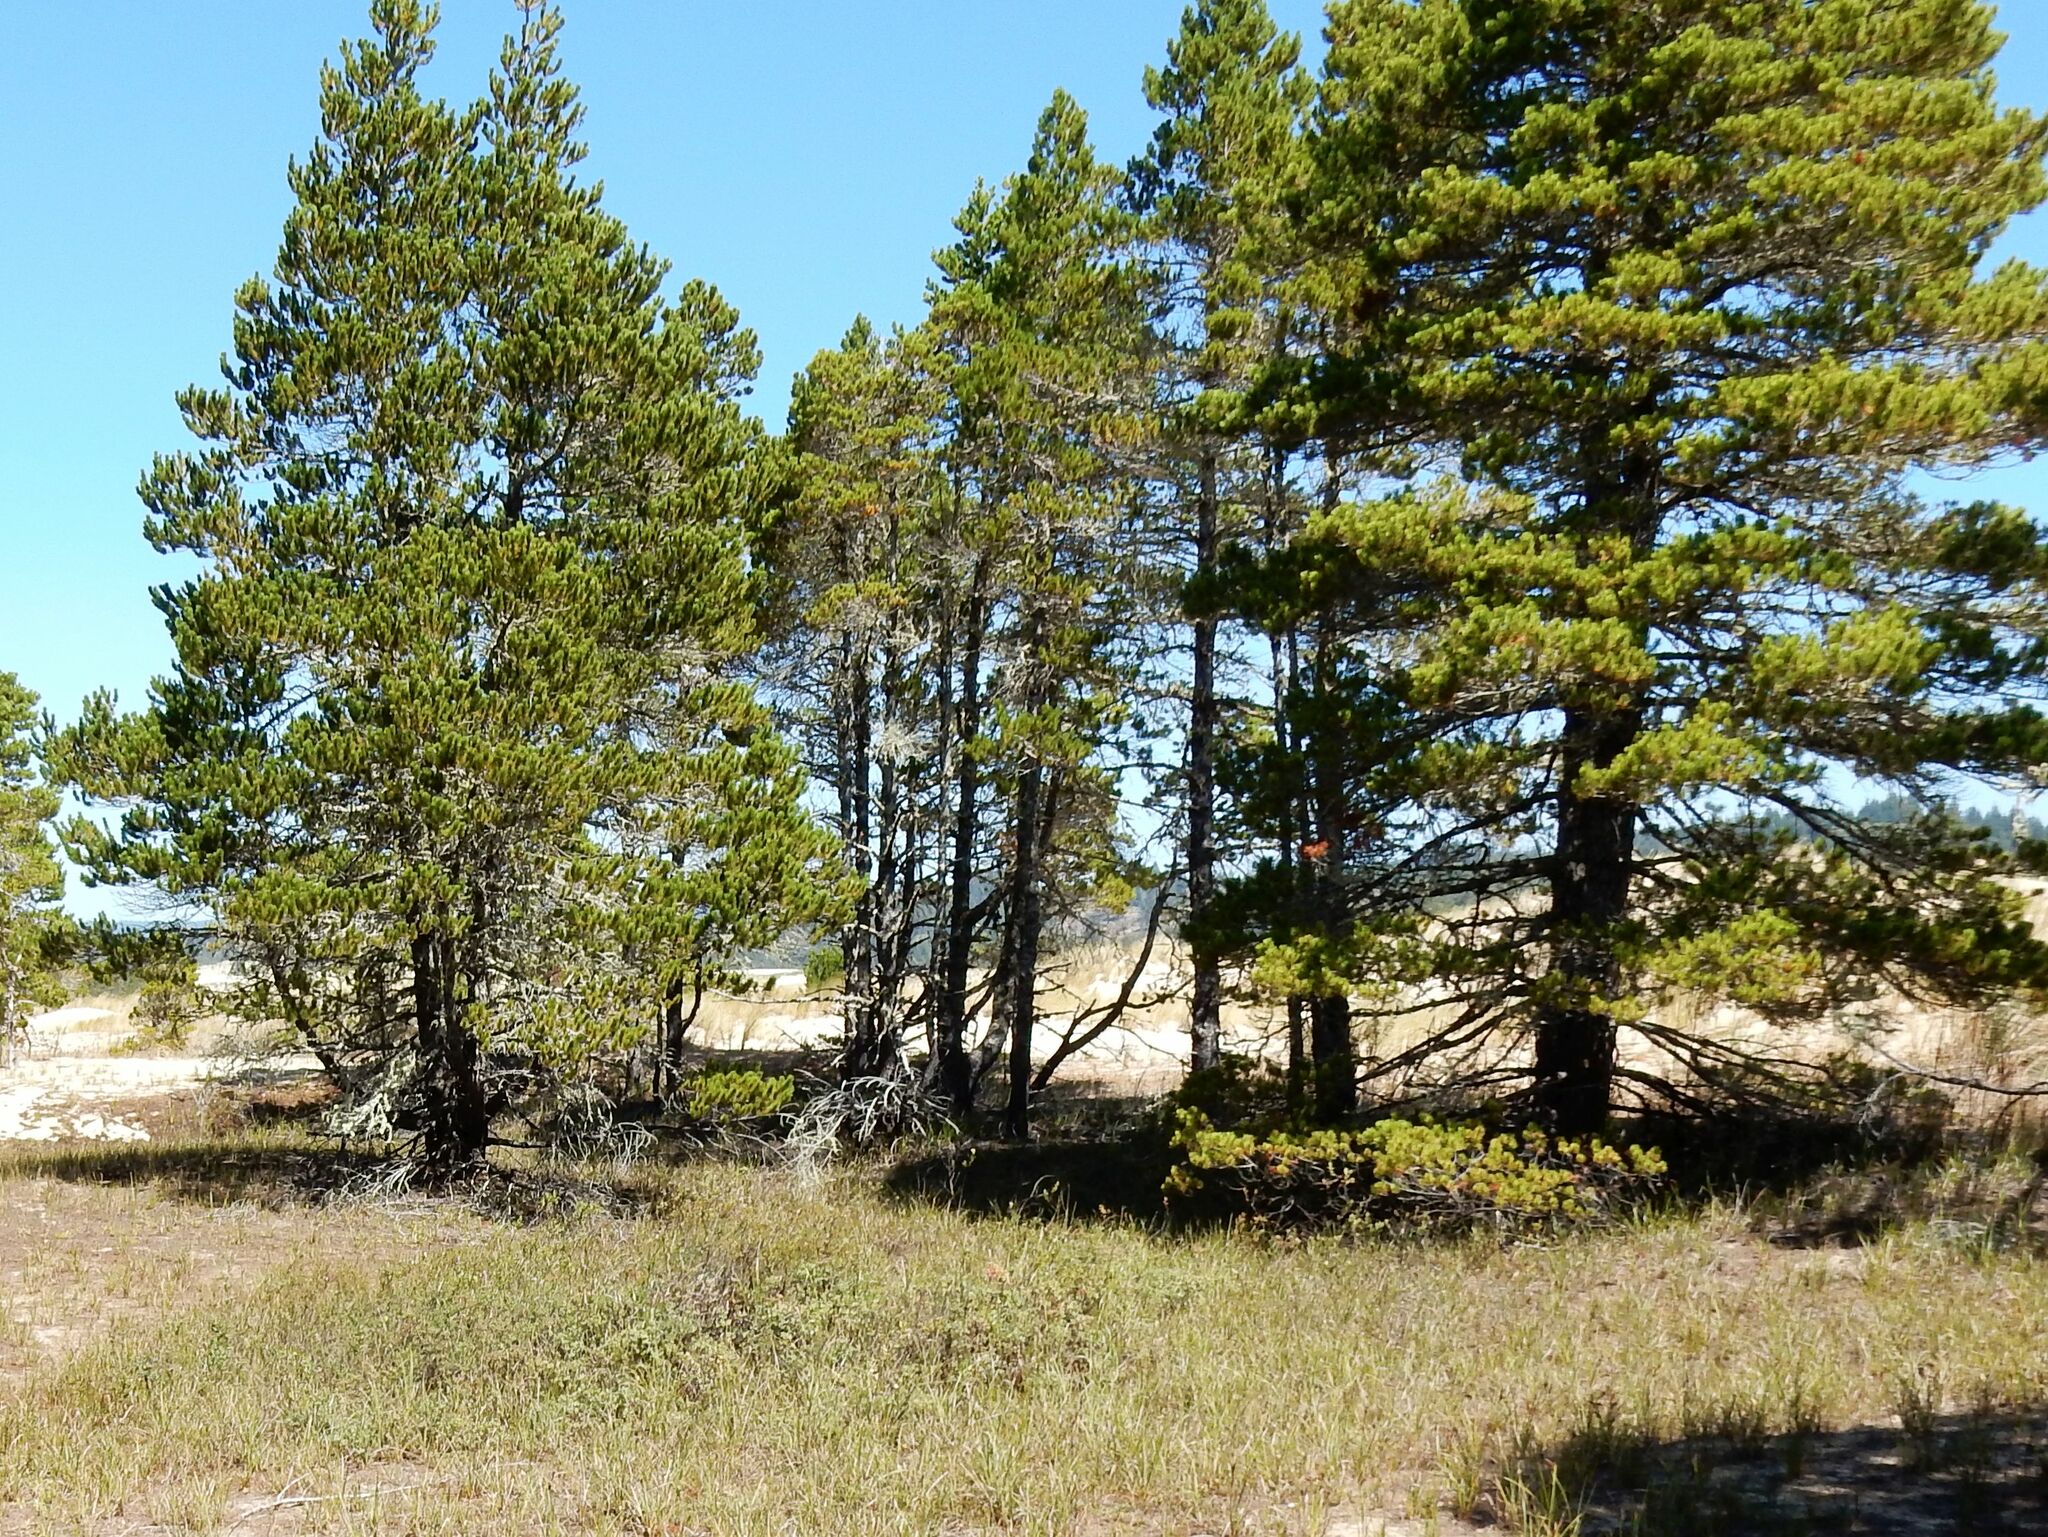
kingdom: Plantae
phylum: Tracheophyta
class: Pinopsida
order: Pinales
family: Pinaceae
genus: Pinus
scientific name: Pinus contorta
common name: Lodgepole pine
